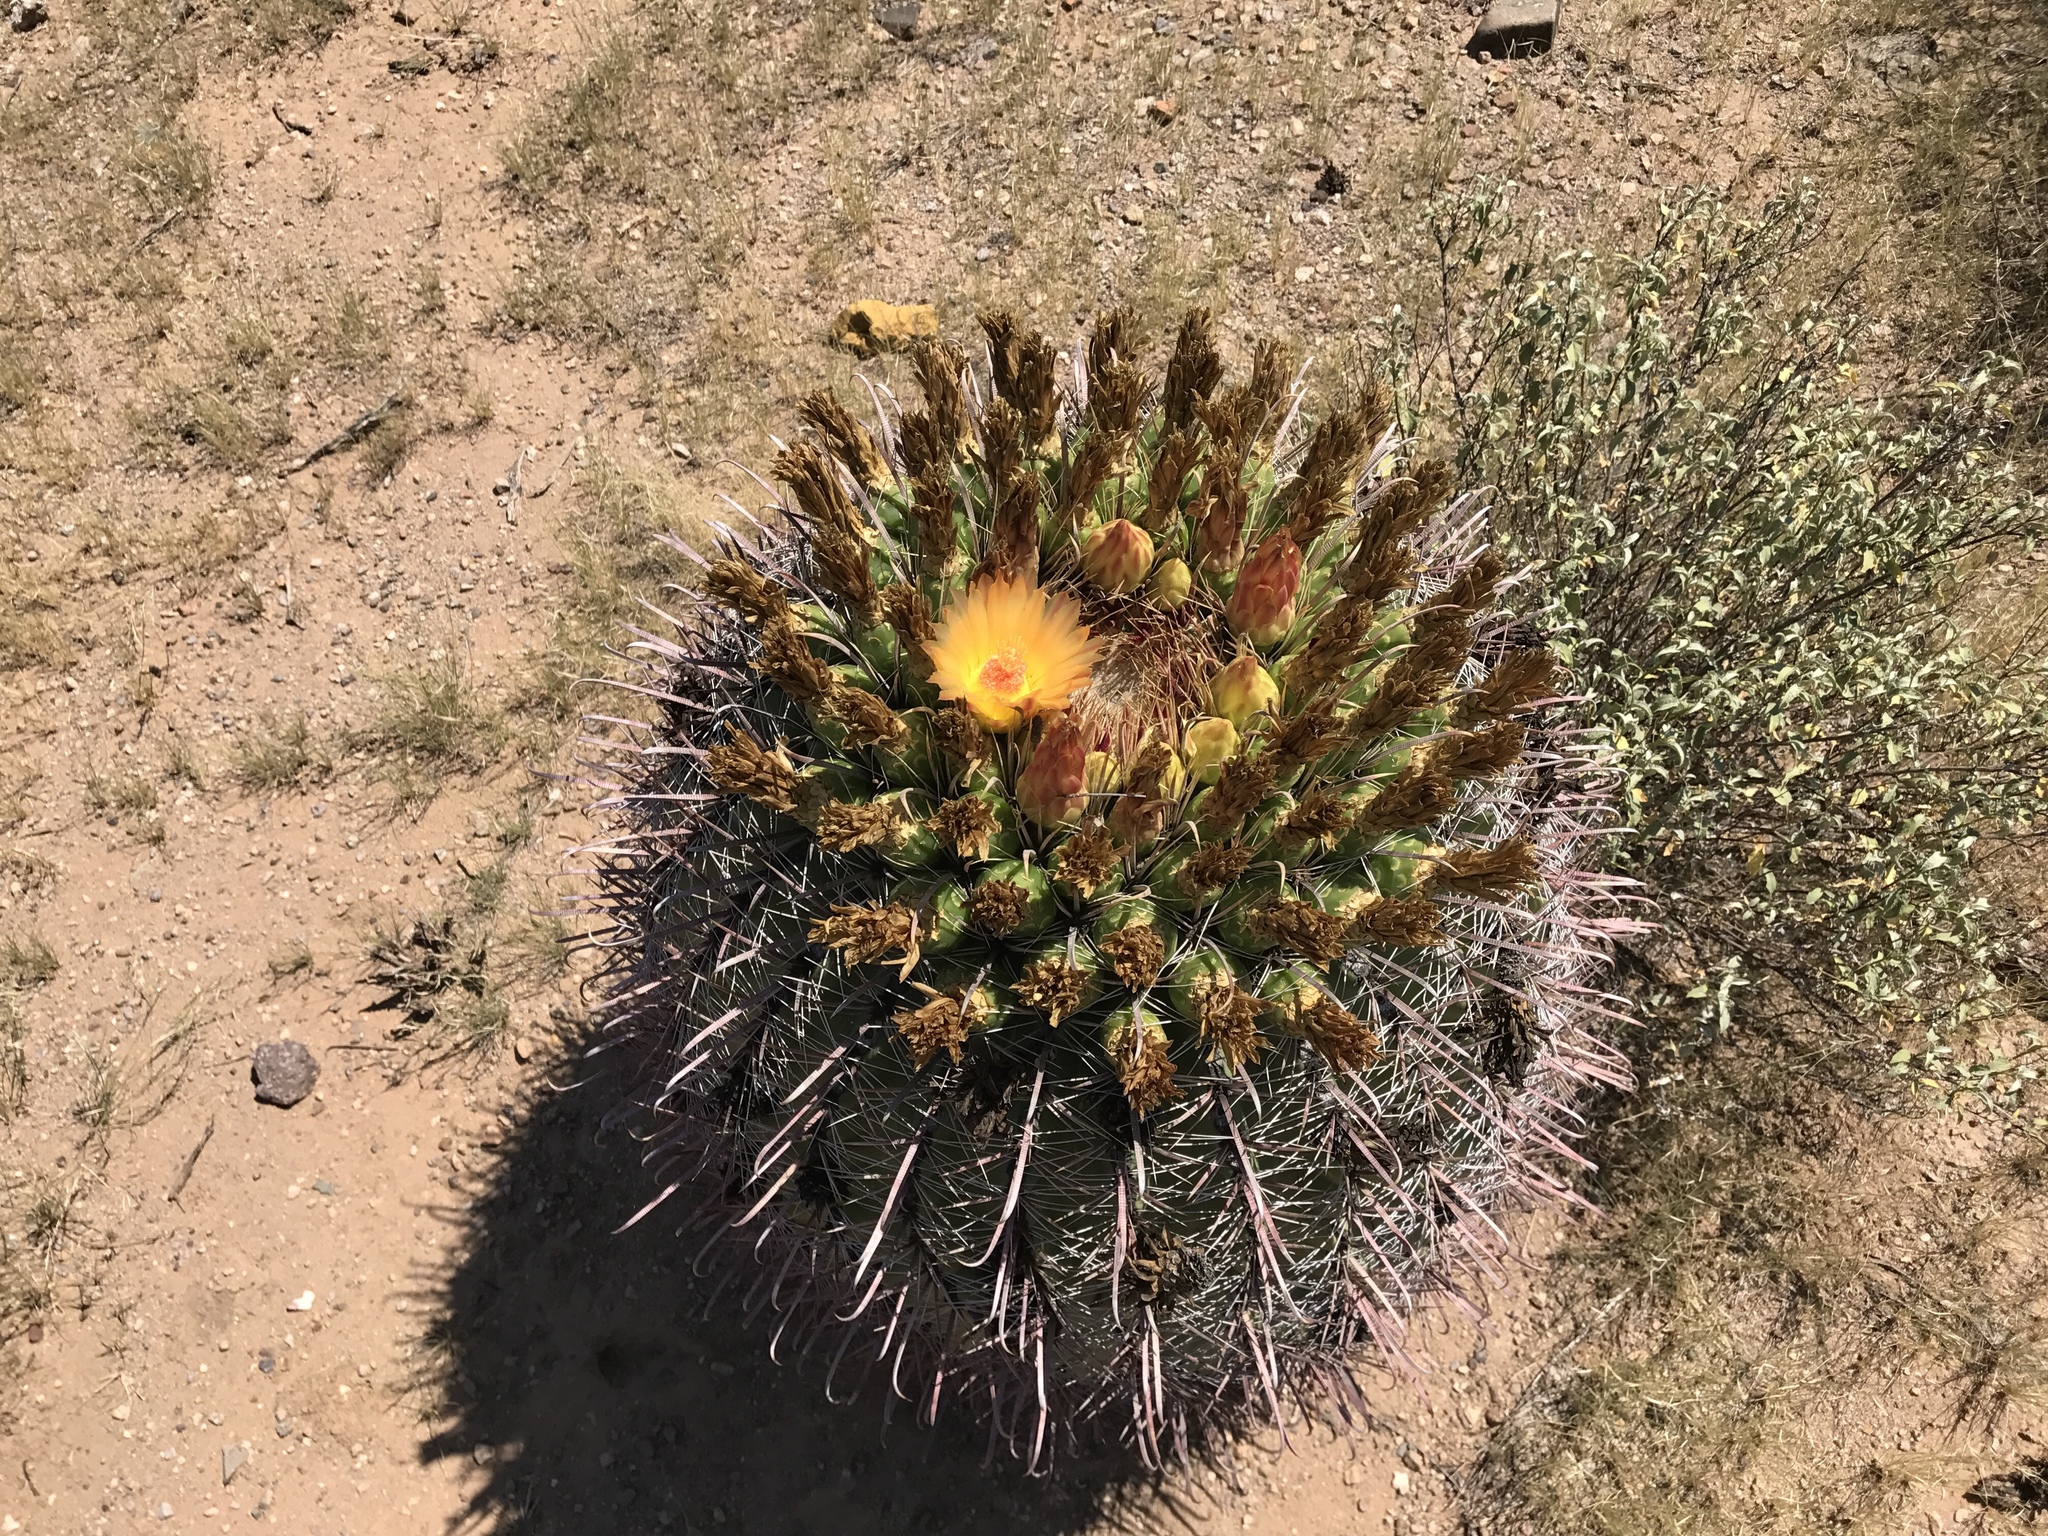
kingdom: Plantae
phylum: Tracheophyta
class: Magnoliopsida
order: Caryophyllales
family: Cactaceae
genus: Ferocactus
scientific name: Ferocactus wislizeni
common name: Candy barrel cactus
